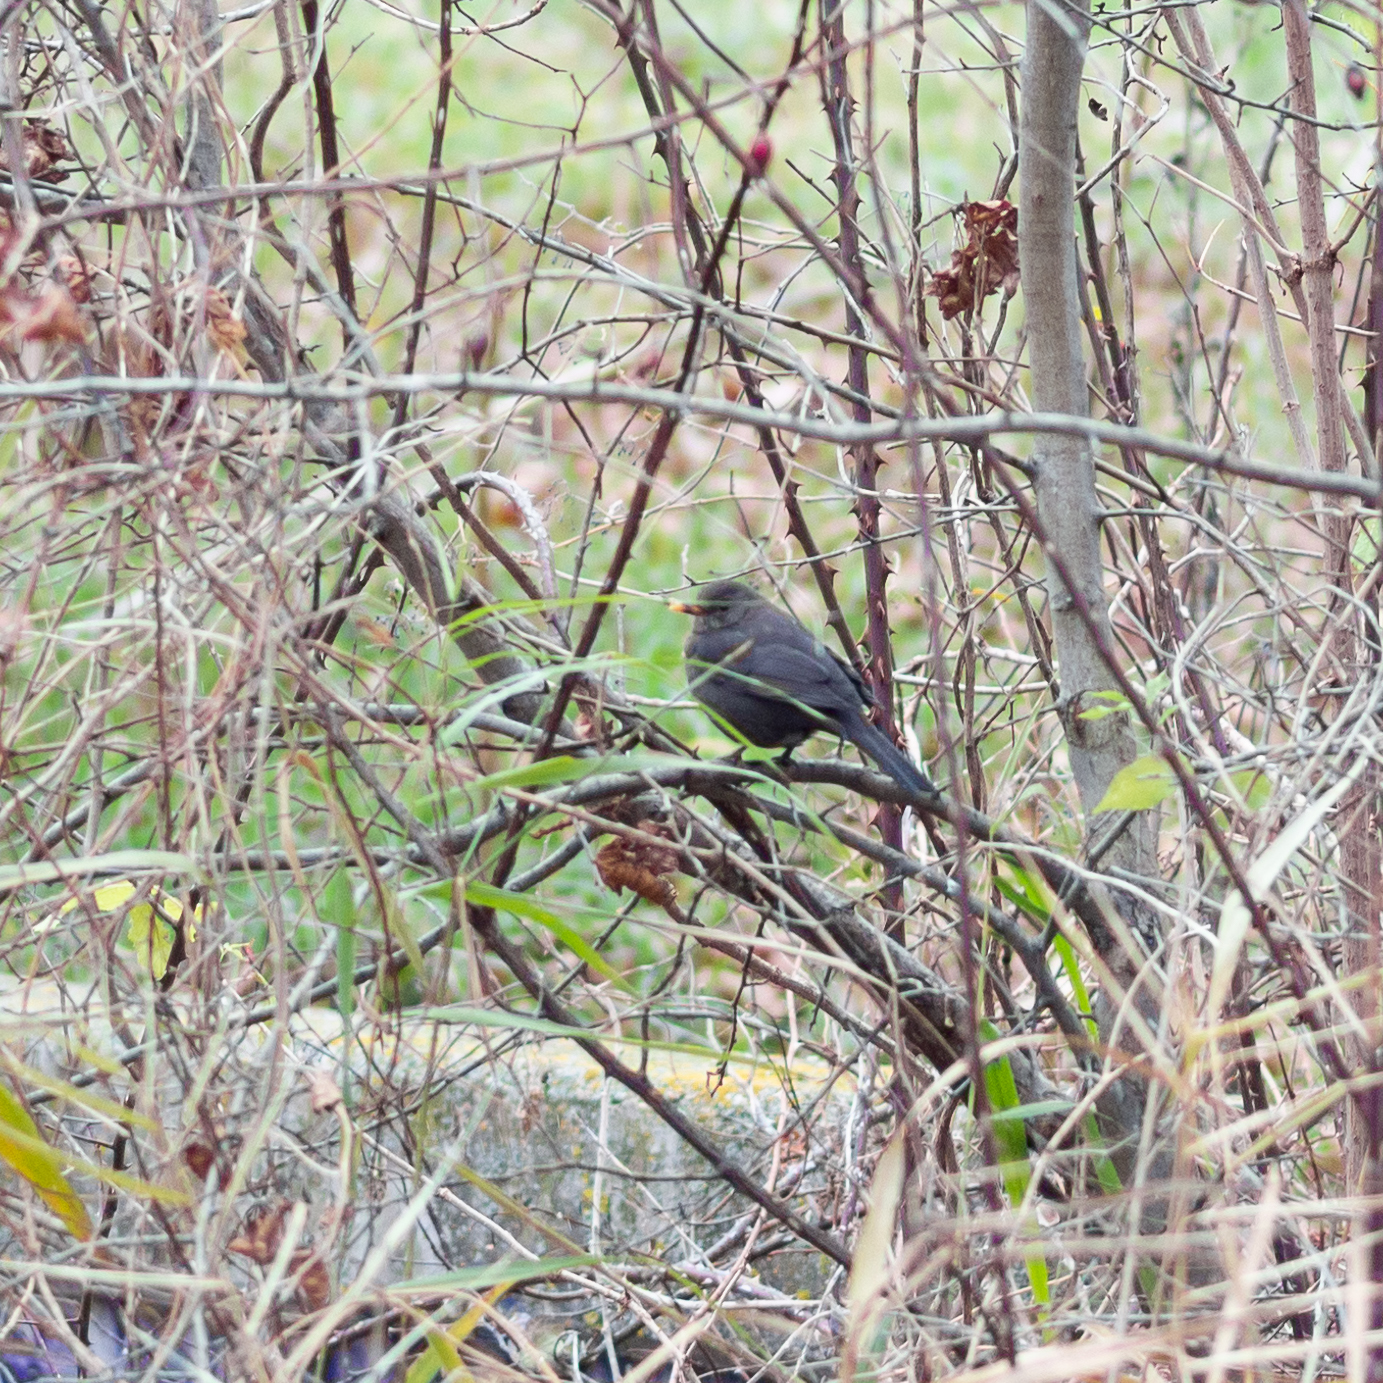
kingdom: Animalia
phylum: Chordata
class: Aves
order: Passeriformes
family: Turdidae
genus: Turdus
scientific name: Turdus merula
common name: Common blackbird
